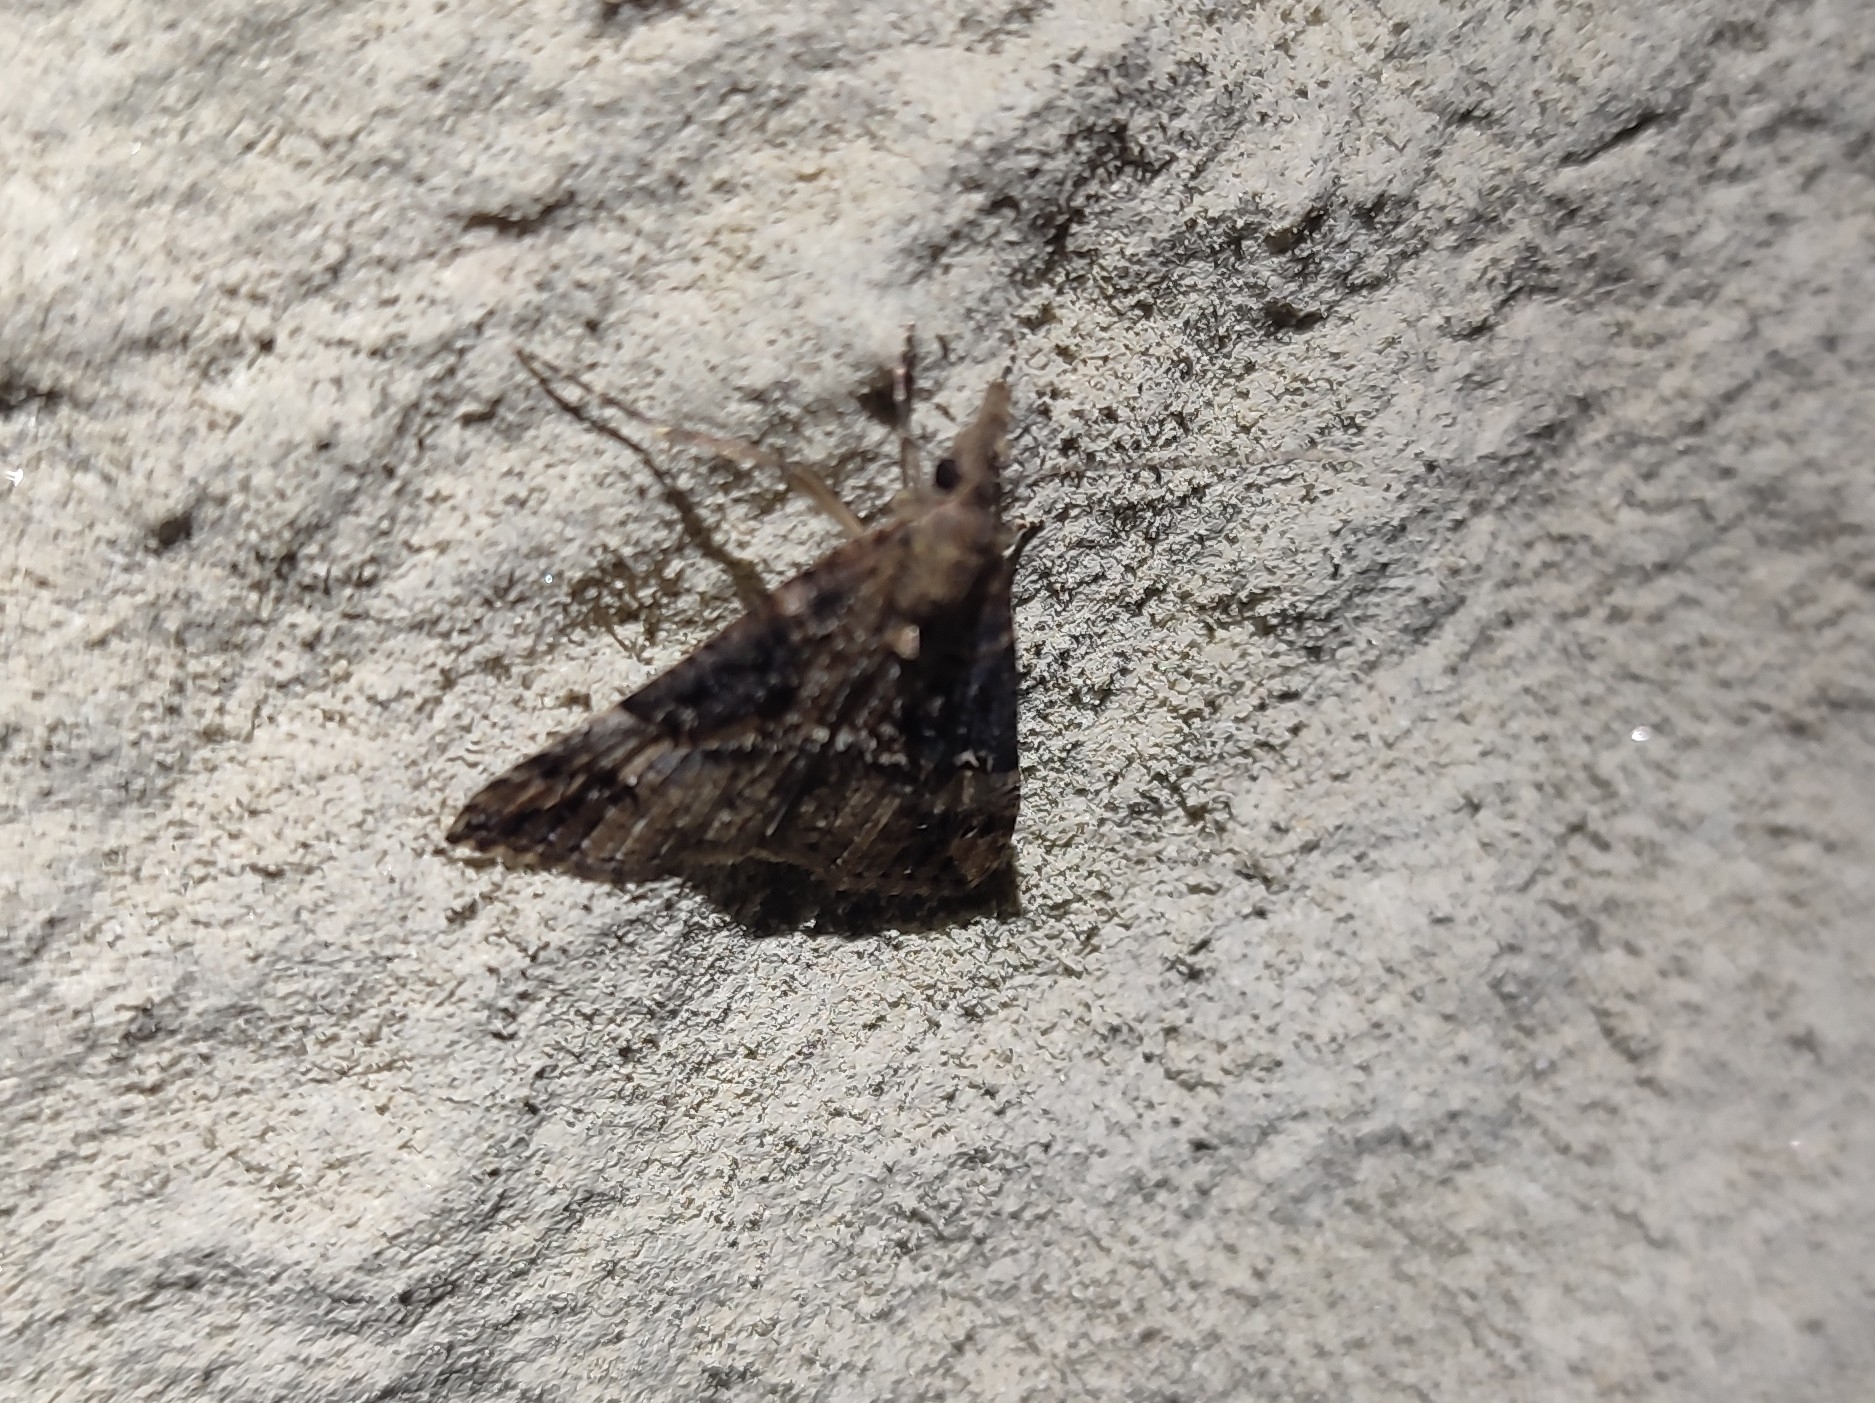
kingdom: Animalia
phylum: Arthropoda
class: Insecta
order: Lepidoptera
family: Erebidae
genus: Hypena
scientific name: Hypena obsitalis
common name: Bloxworth snout
